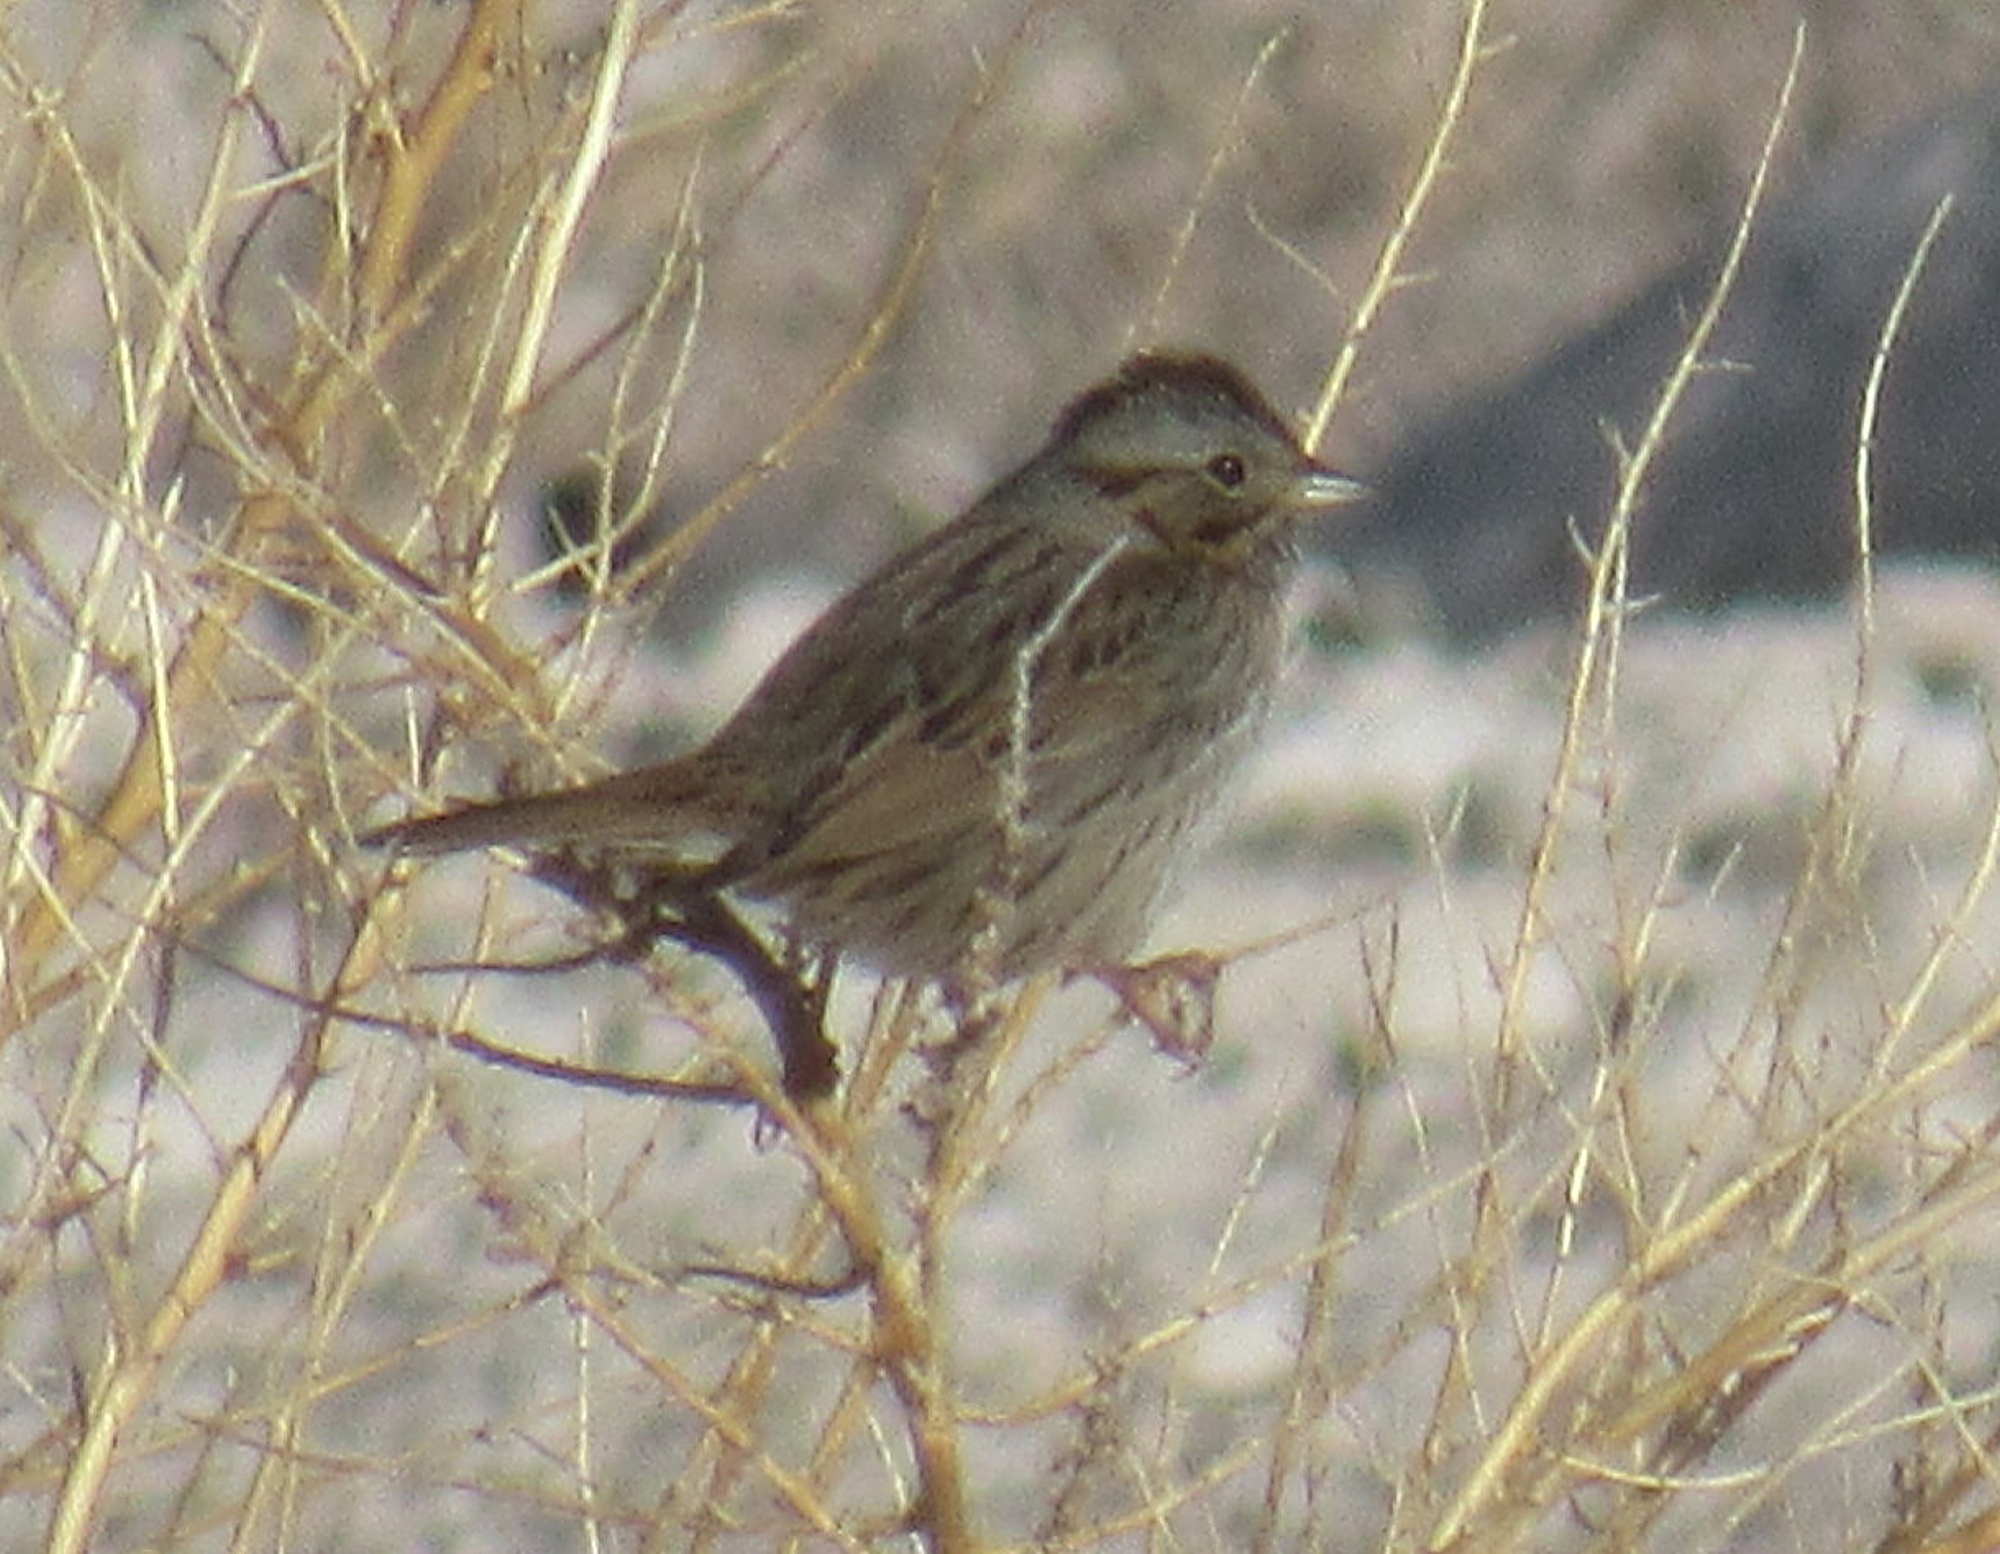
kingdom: Animalia
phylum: Chordata
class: Aves
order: Passeriformes
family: Passerellidae
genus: Melospiza
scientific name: Melospiza lincolnii
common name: Lincoln's sparrow
